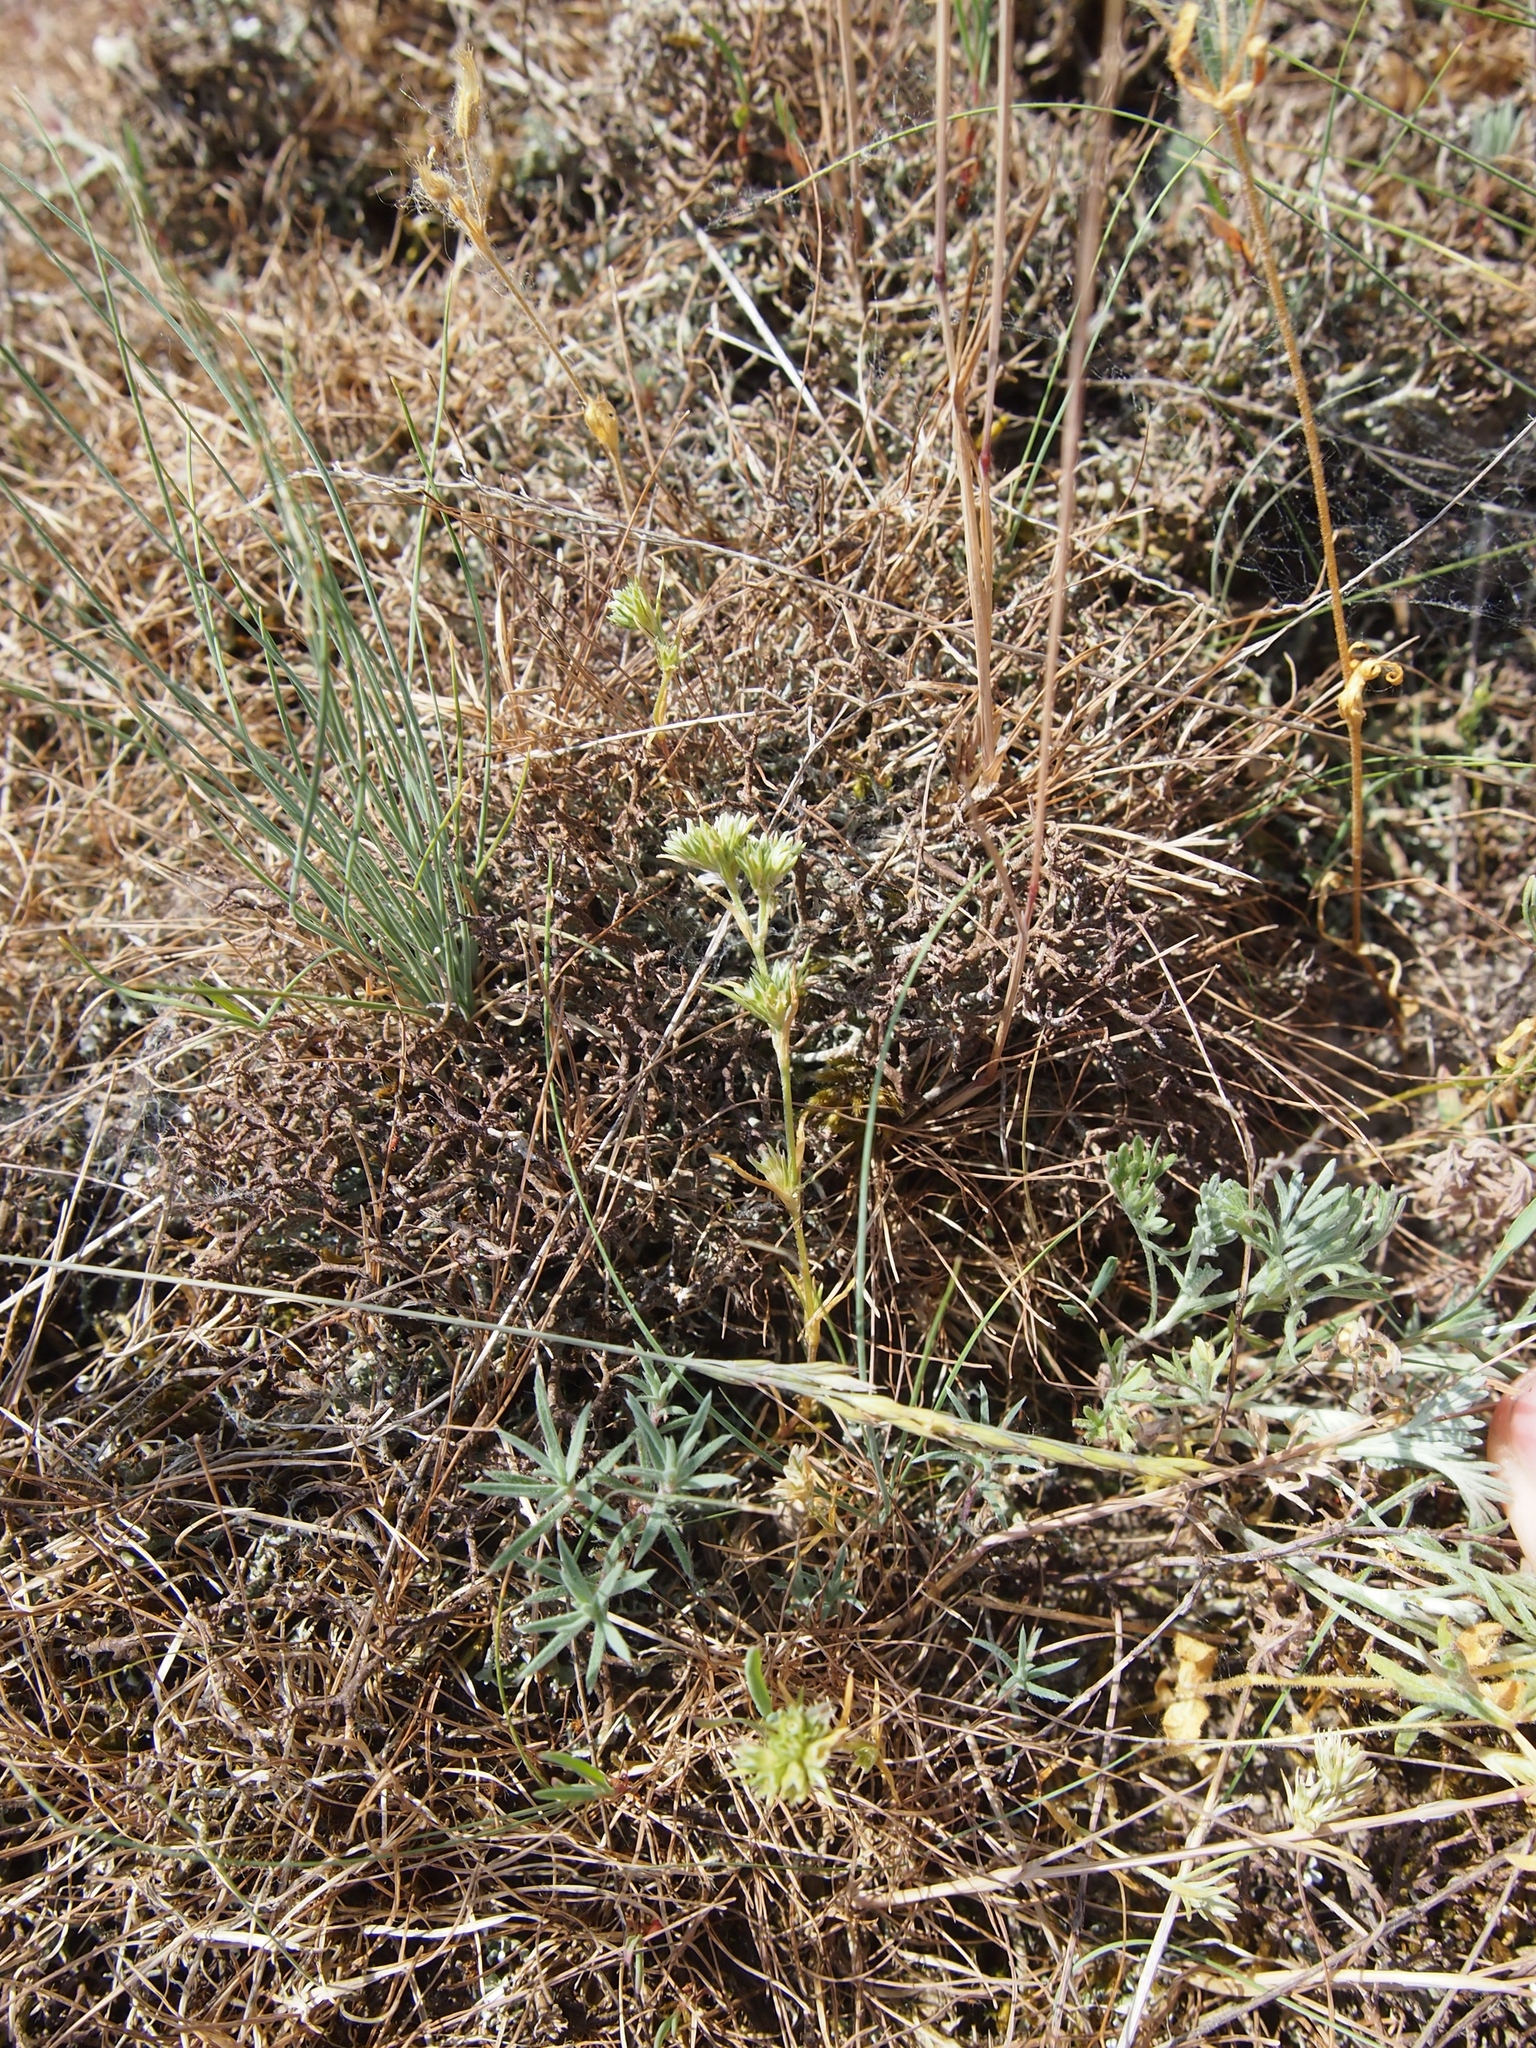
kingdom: Plantae
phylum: Tracheophyta
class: Magnoliopsida
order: Caryophyllales
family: Caryophyllaceae
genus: Scleranthus
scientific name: Scleranthus annuus
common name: Annual knawel
